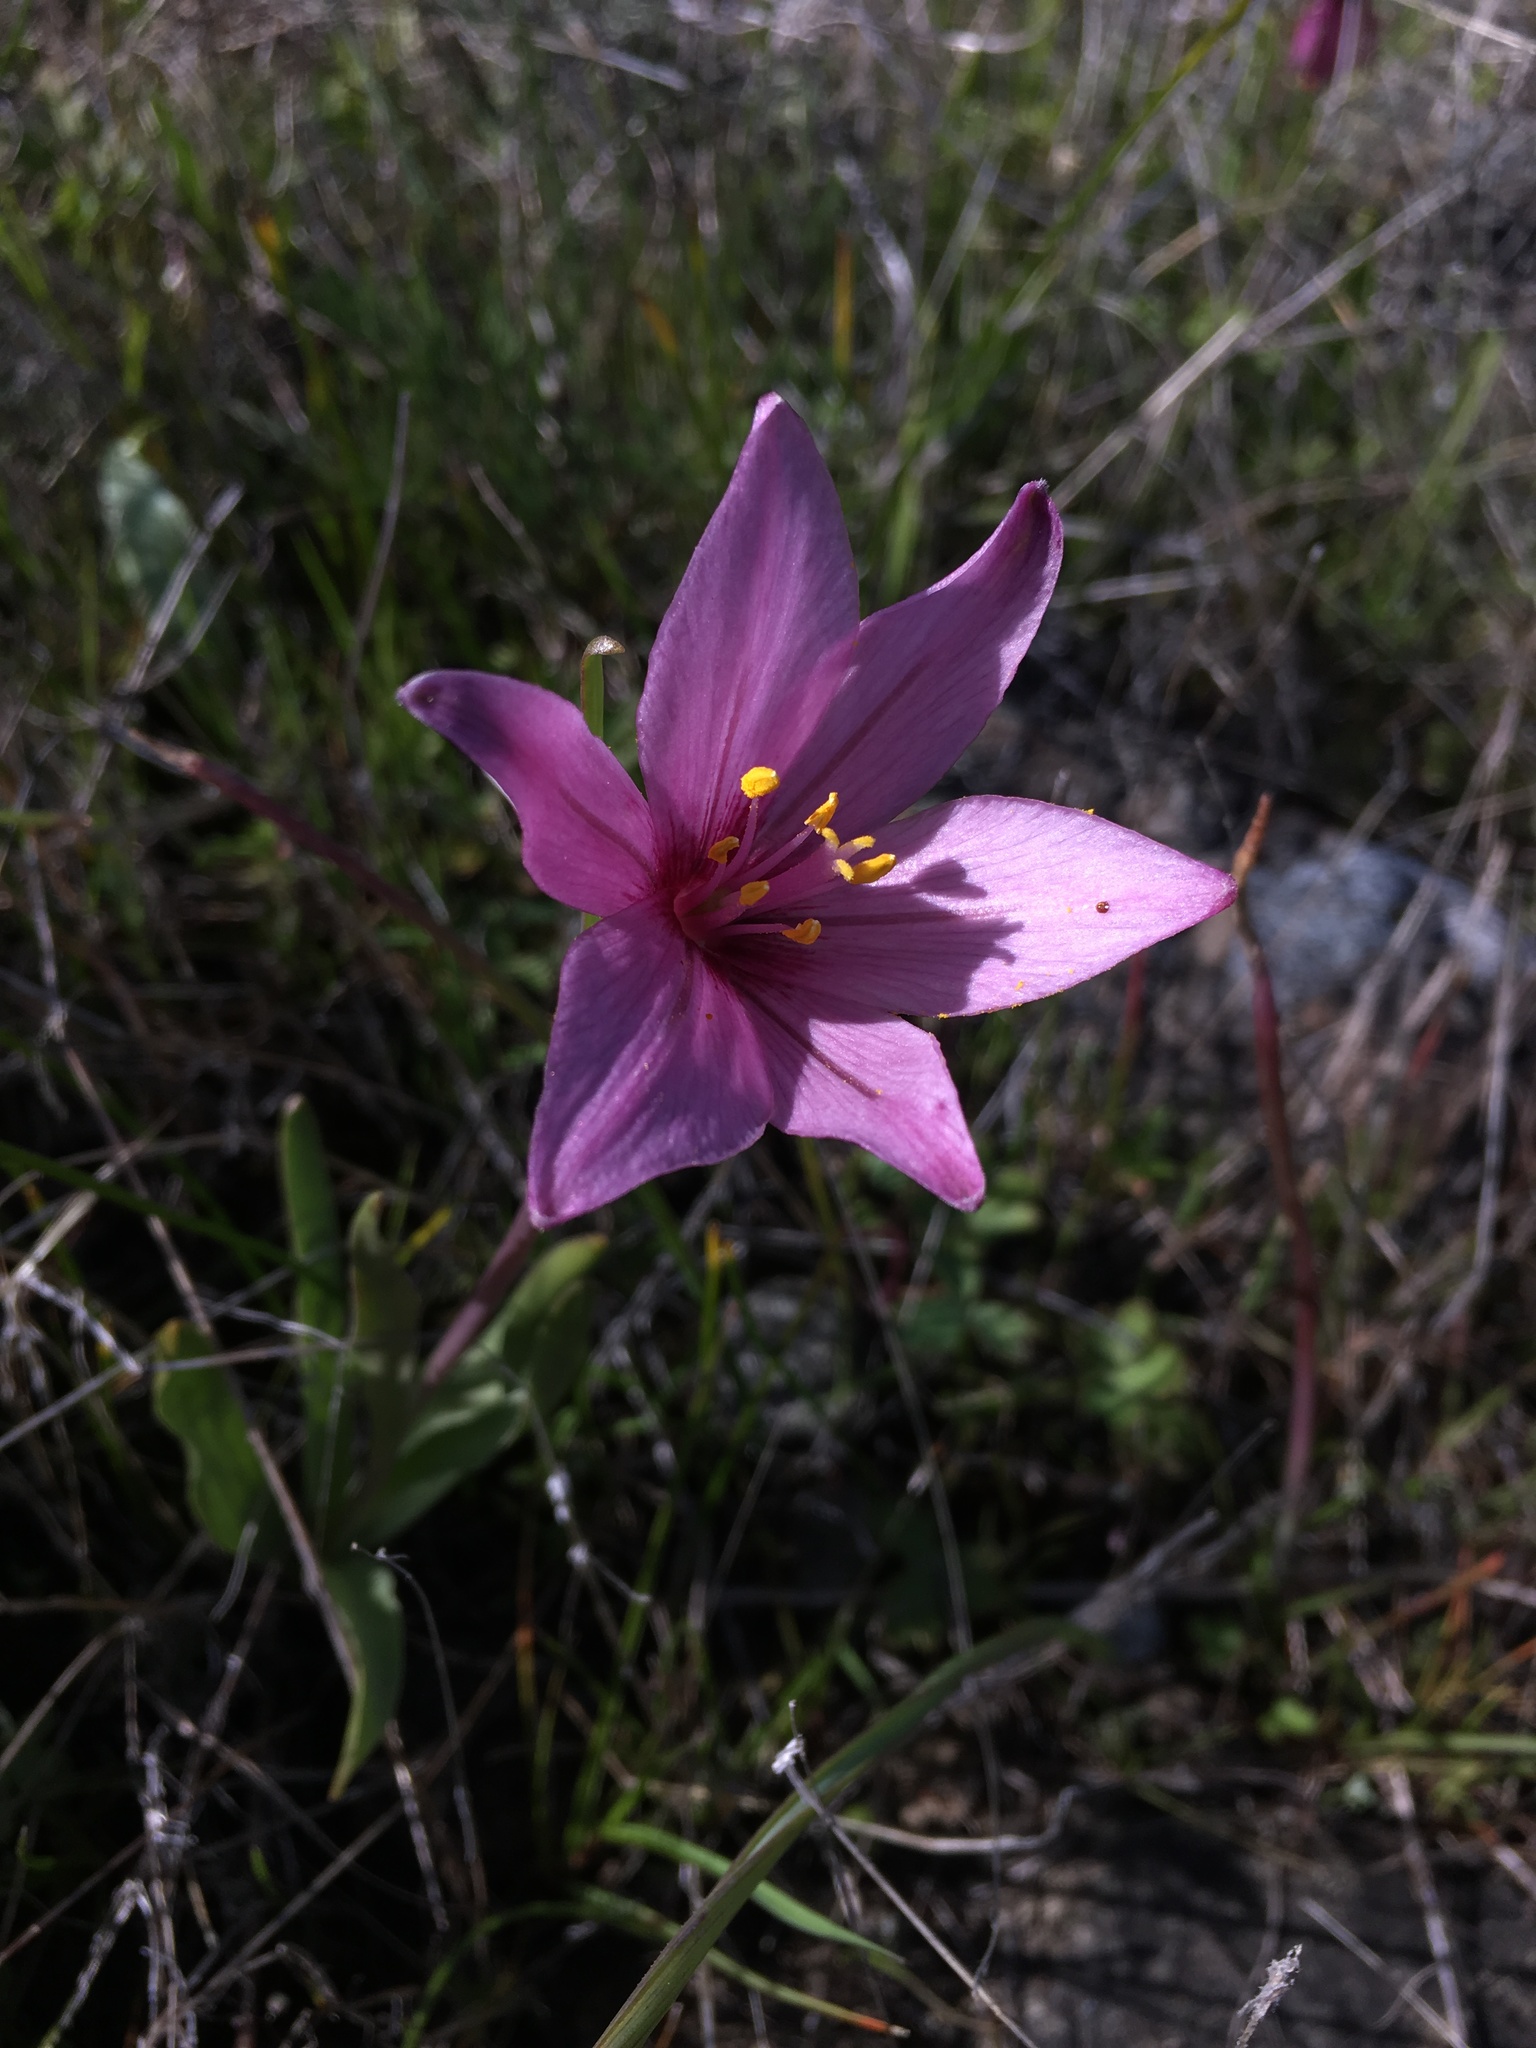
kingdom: Plantae
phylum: Tracheophyta
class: Liliopsida
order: Liliales
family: Liliaceae
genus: Fritillaria
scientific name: Fritillaria pluriflora
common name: Adobe-lily
